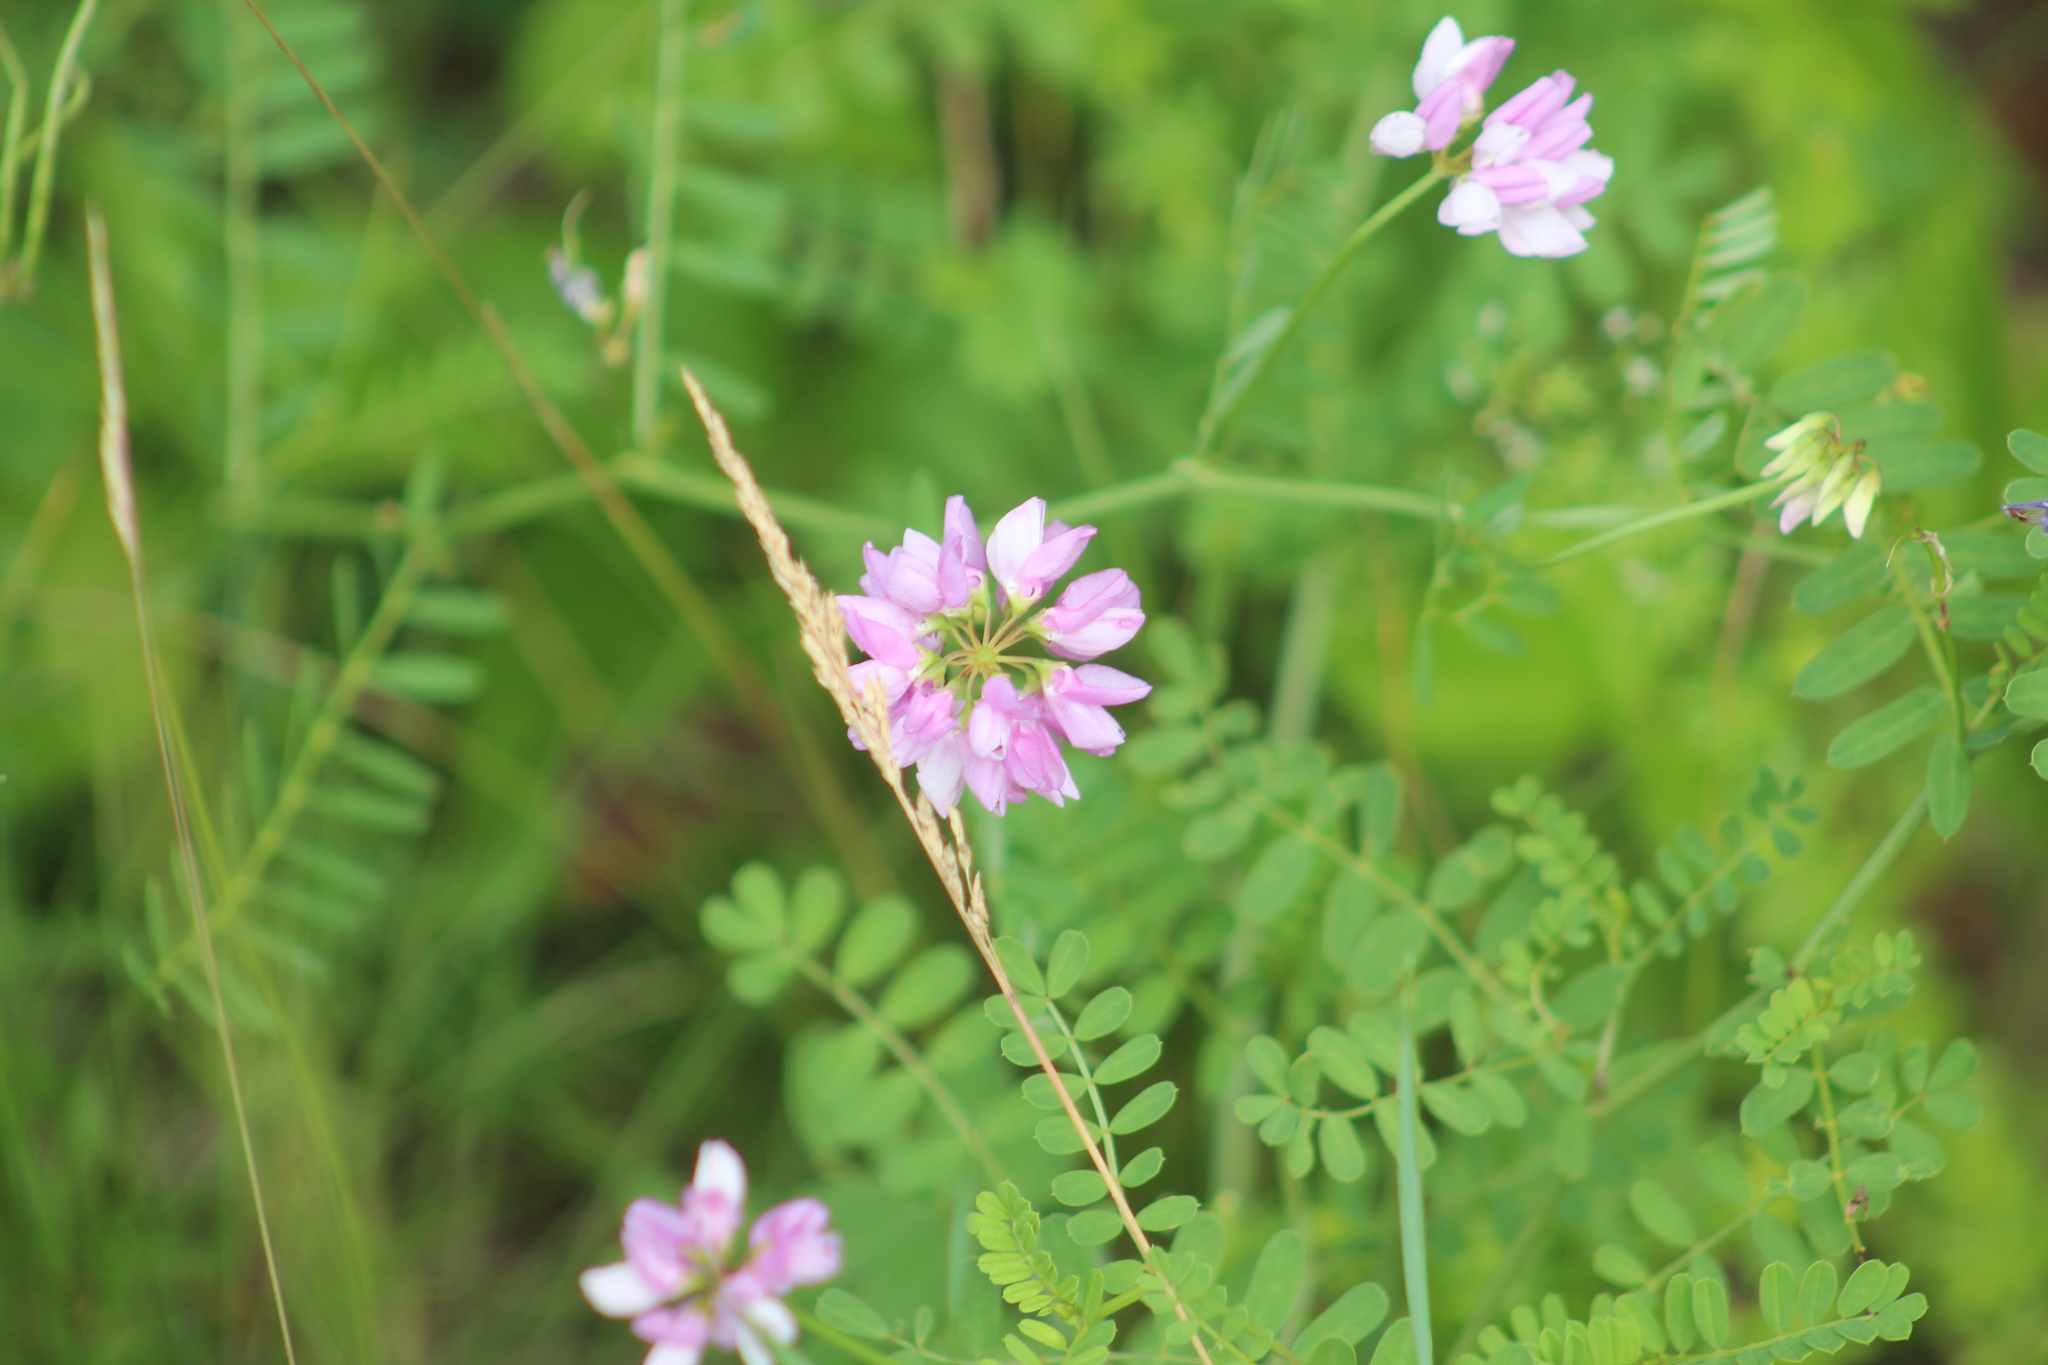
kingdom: Plantae
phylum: Tracheophyta
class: Magnoliopsida
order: Fabales
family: Fabaceae
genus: Coronilla
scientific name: Coronilla varia
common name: Crownvetch
